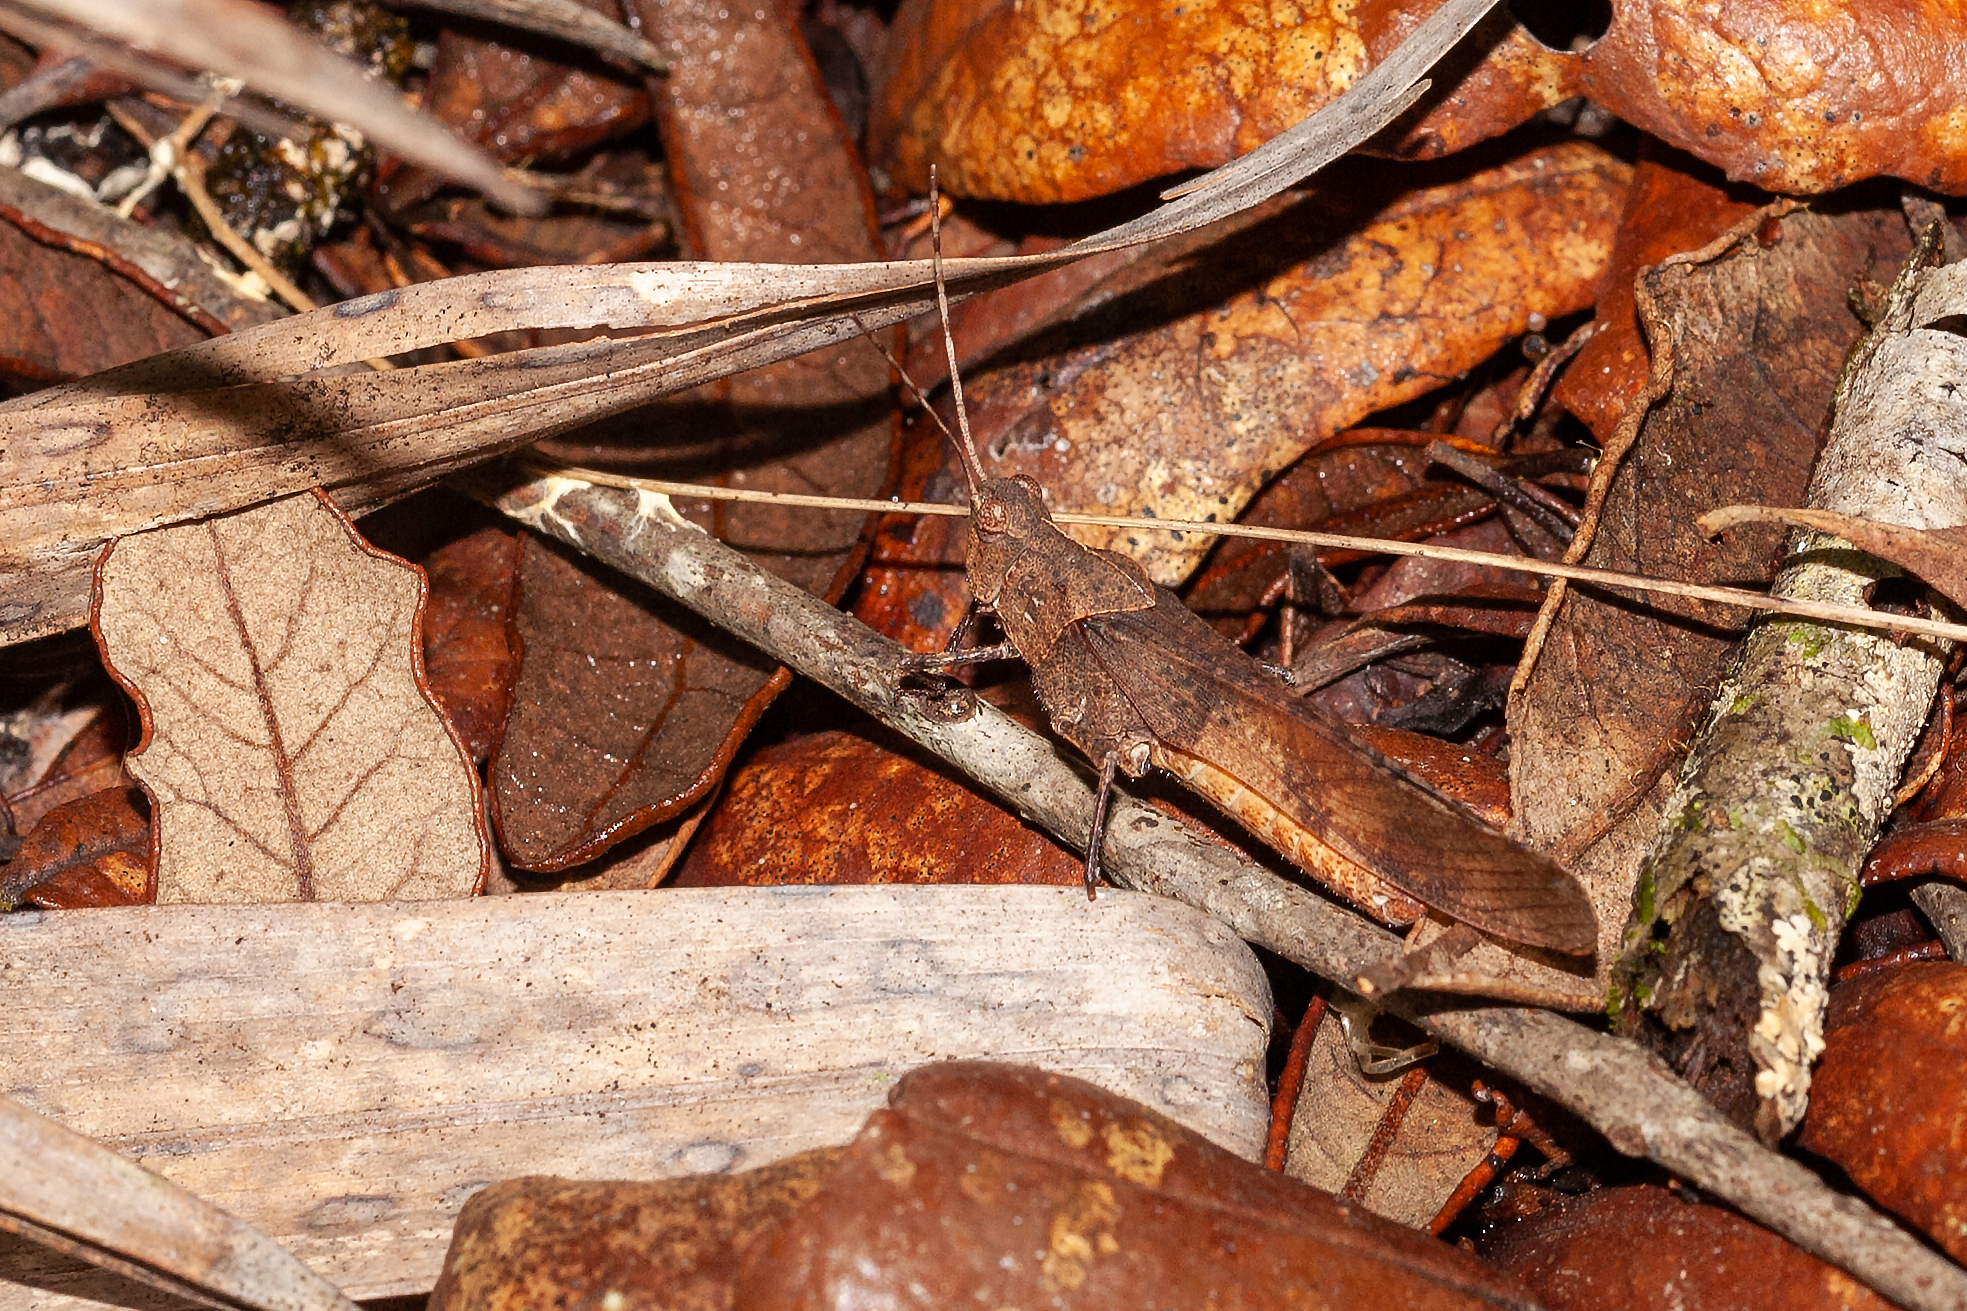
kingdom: Animalia
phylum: Arthropoda
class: Insecta
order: Orthoptera
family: Acrididae
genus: Spharagemon
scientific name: Spharagemon crepitans
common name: Crepitating grasshopper
